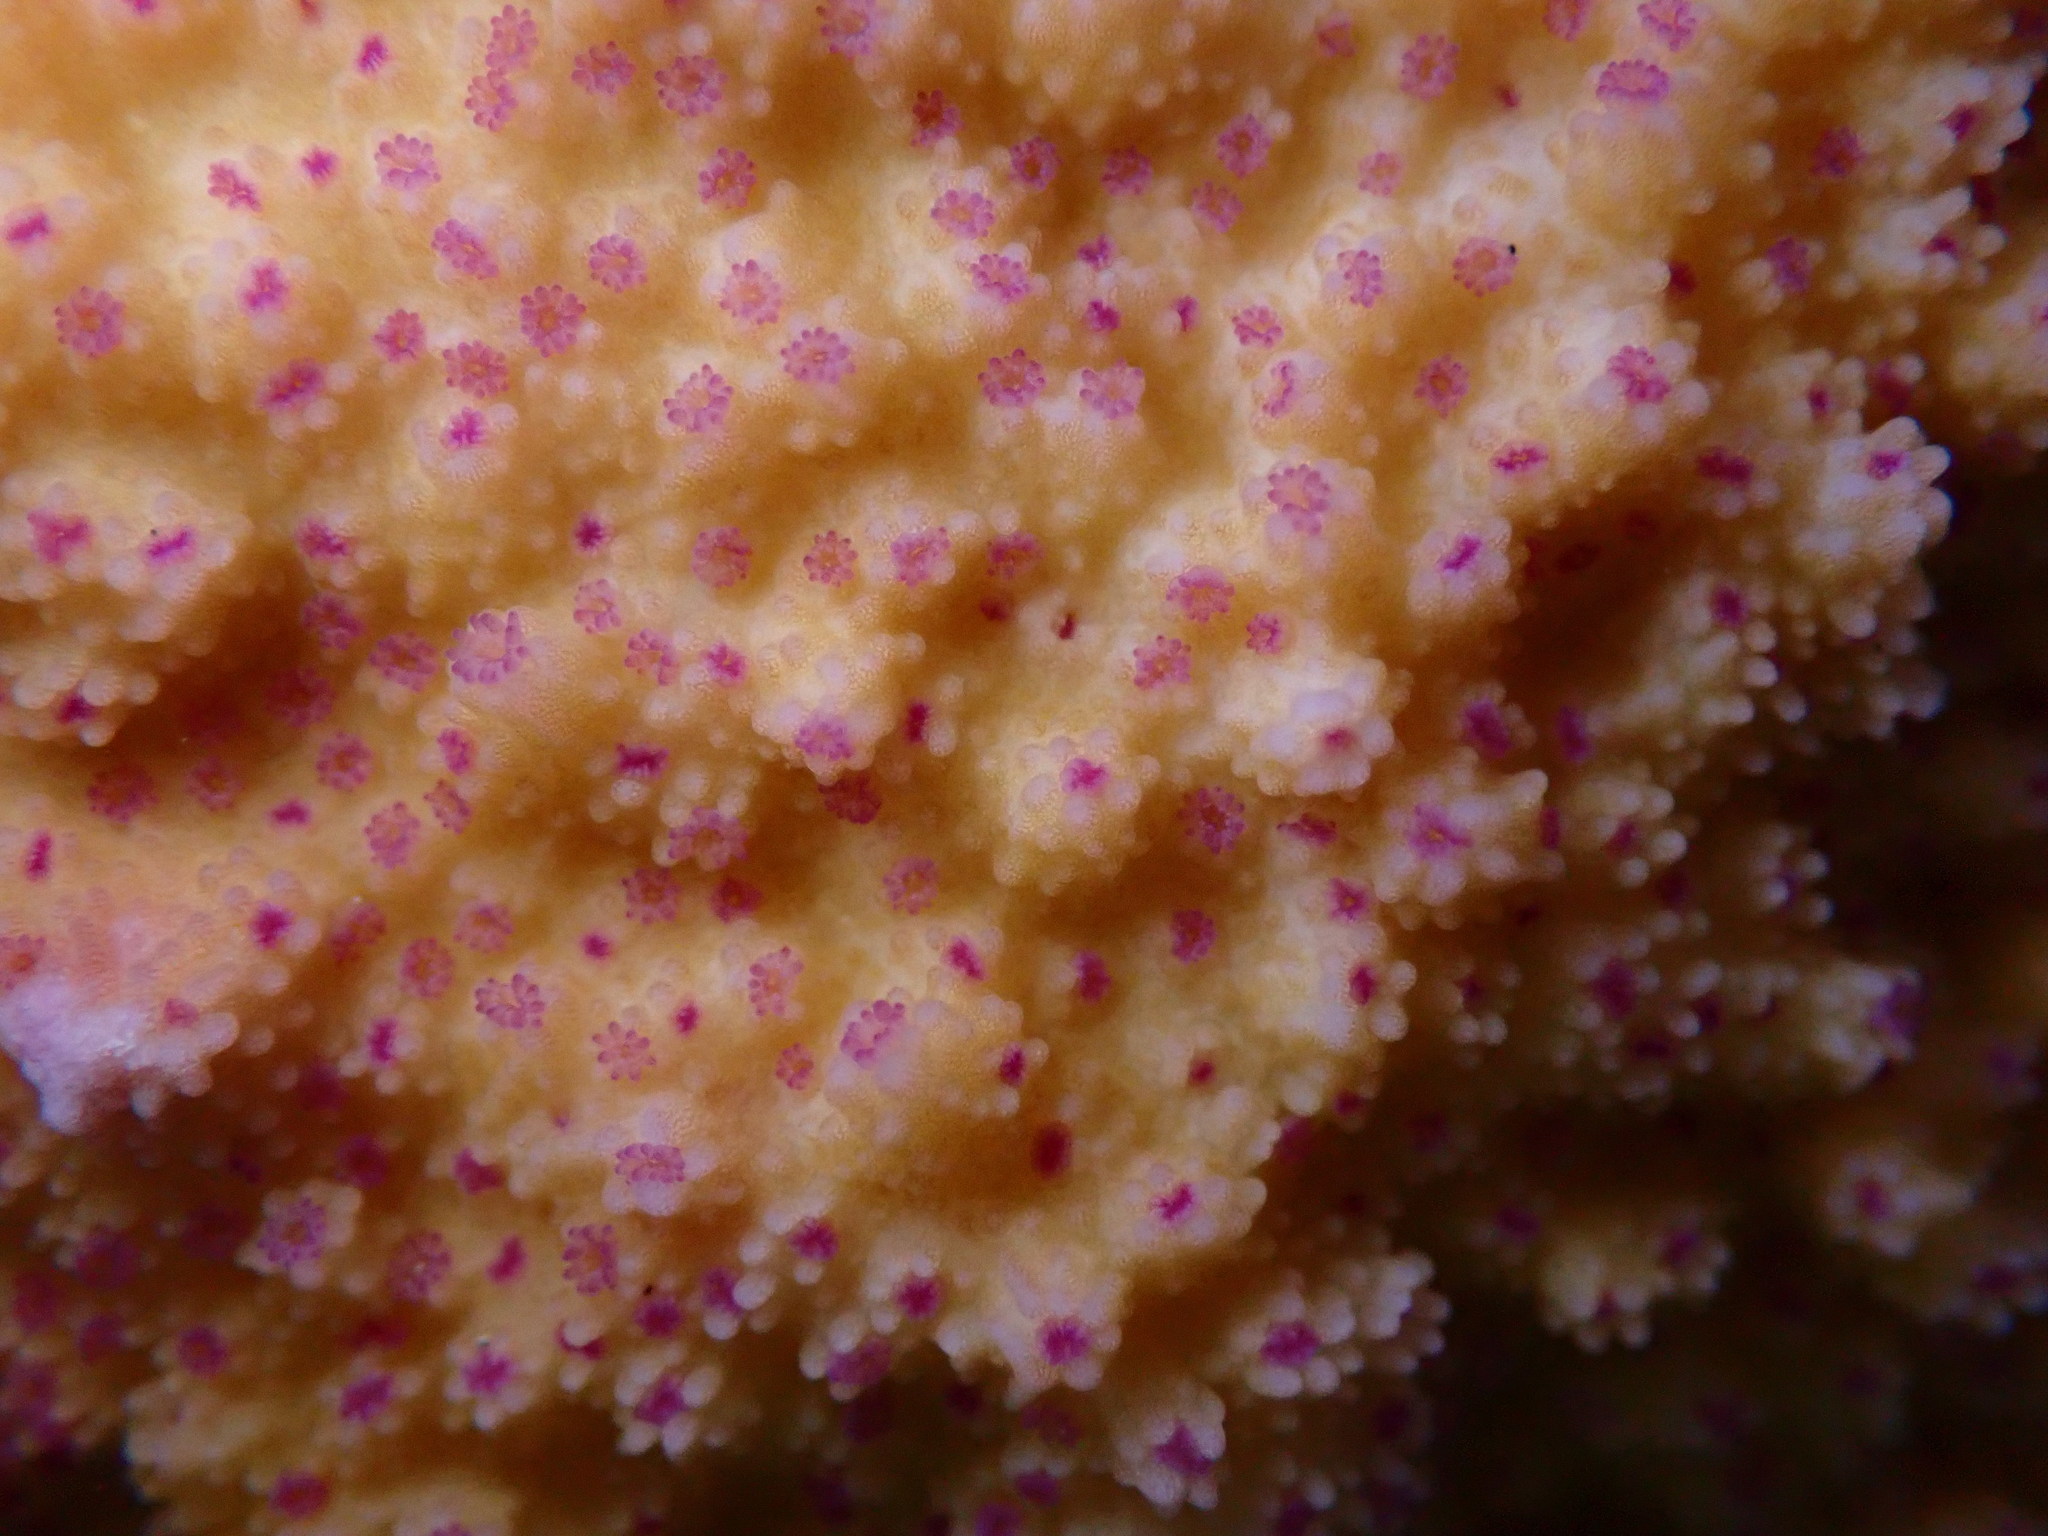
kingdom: Animalia
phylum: Cnidaria
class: Anthozoa
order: Scleractinia
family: Acroporidae
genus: Montipora
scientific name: Montipora patula
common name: Pore coral
